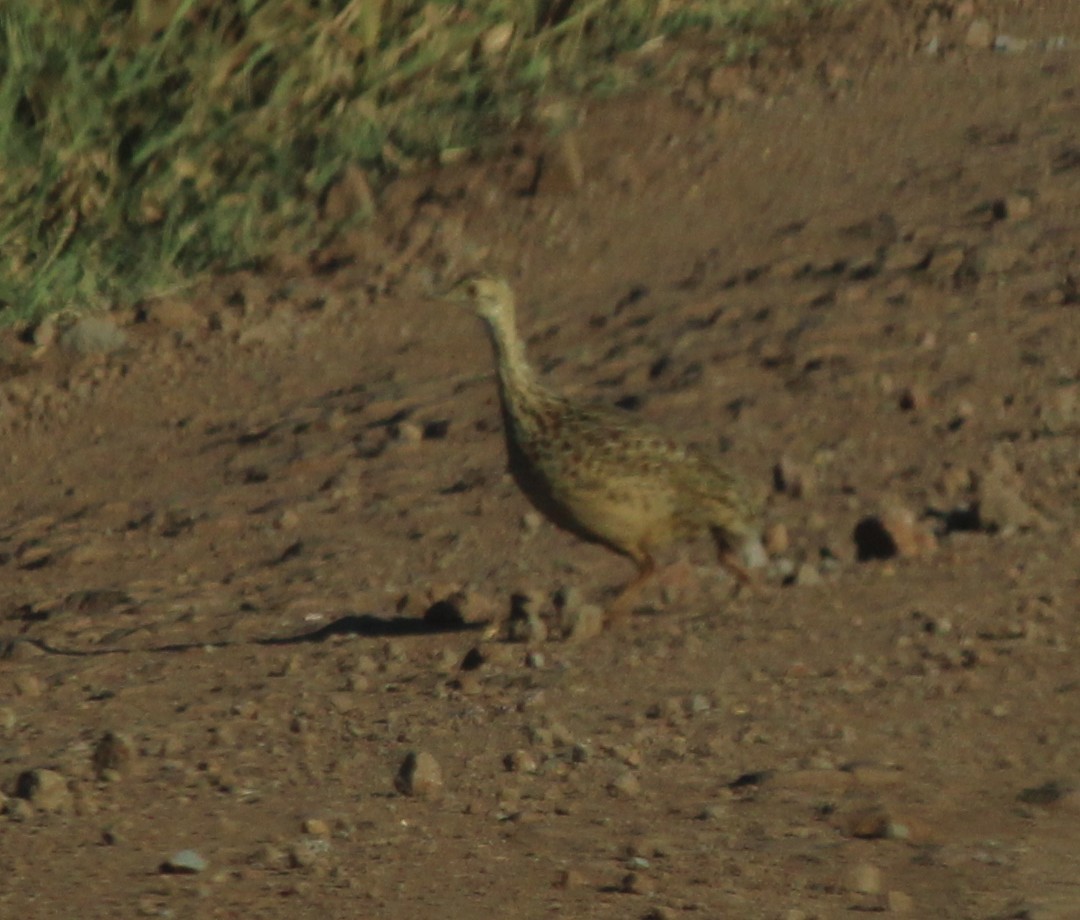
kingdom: Animalia
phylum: Chordata
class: Aves
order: Tinamiformes
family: Tinamidae
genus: Nothura
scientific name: Nothura maculosa
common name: Spotted nothura
